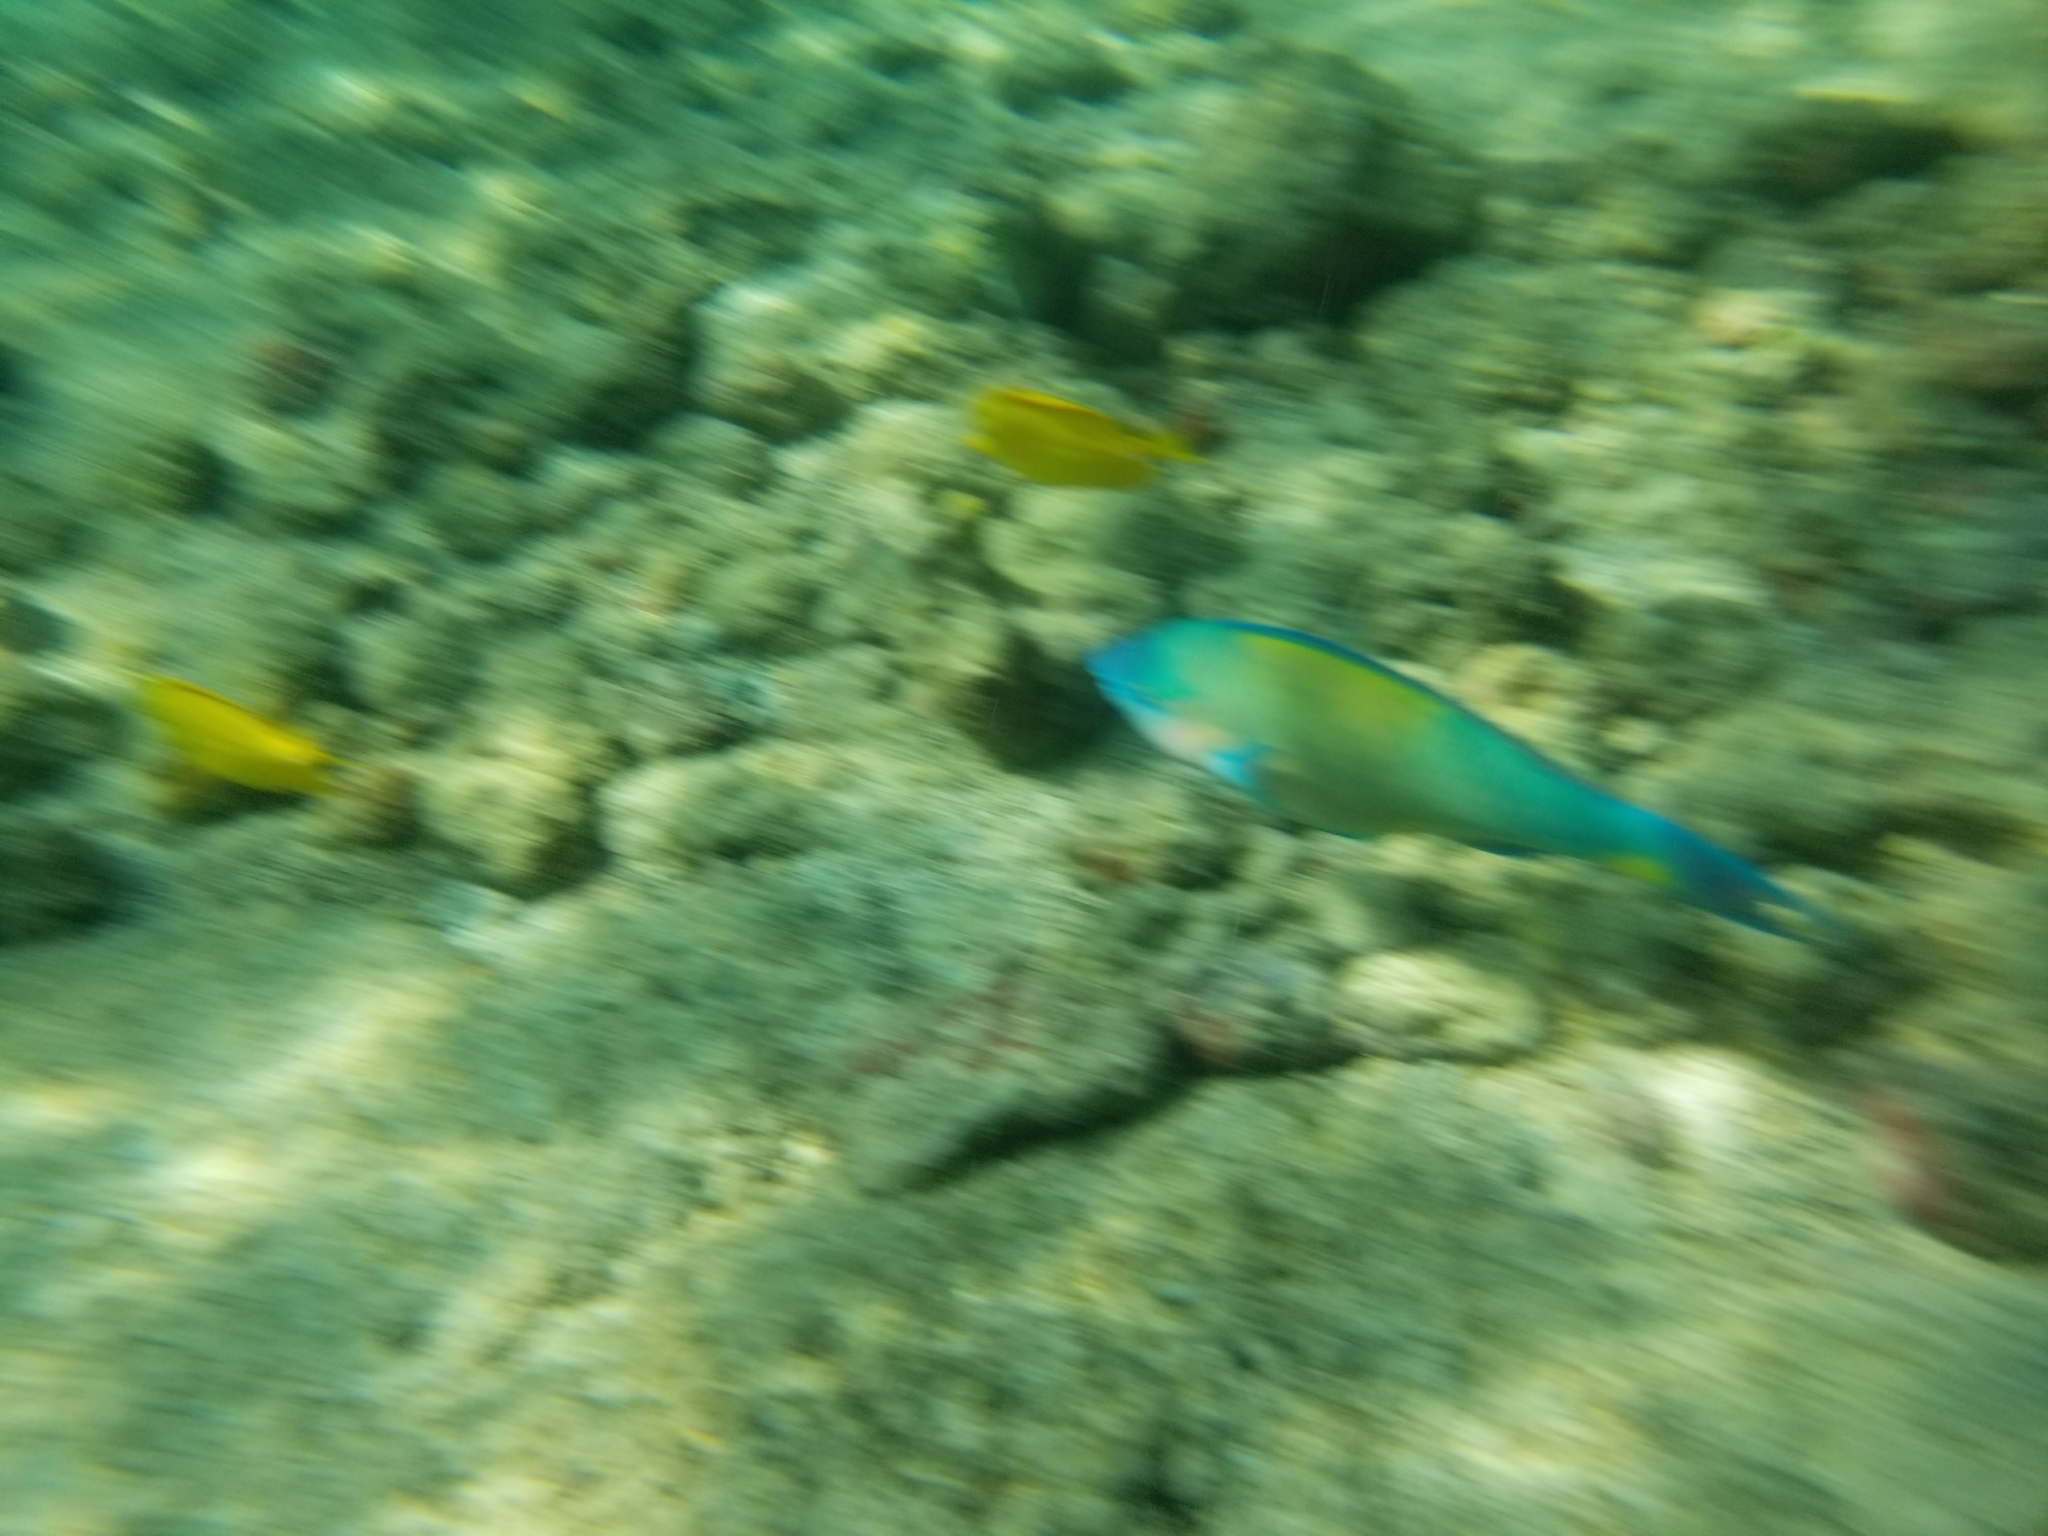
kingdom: Animalia
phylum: Chordata
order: Perciformes
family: Scaridae
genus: Scarus
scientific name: Scarus psittacus
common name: Palenose parrotfish
